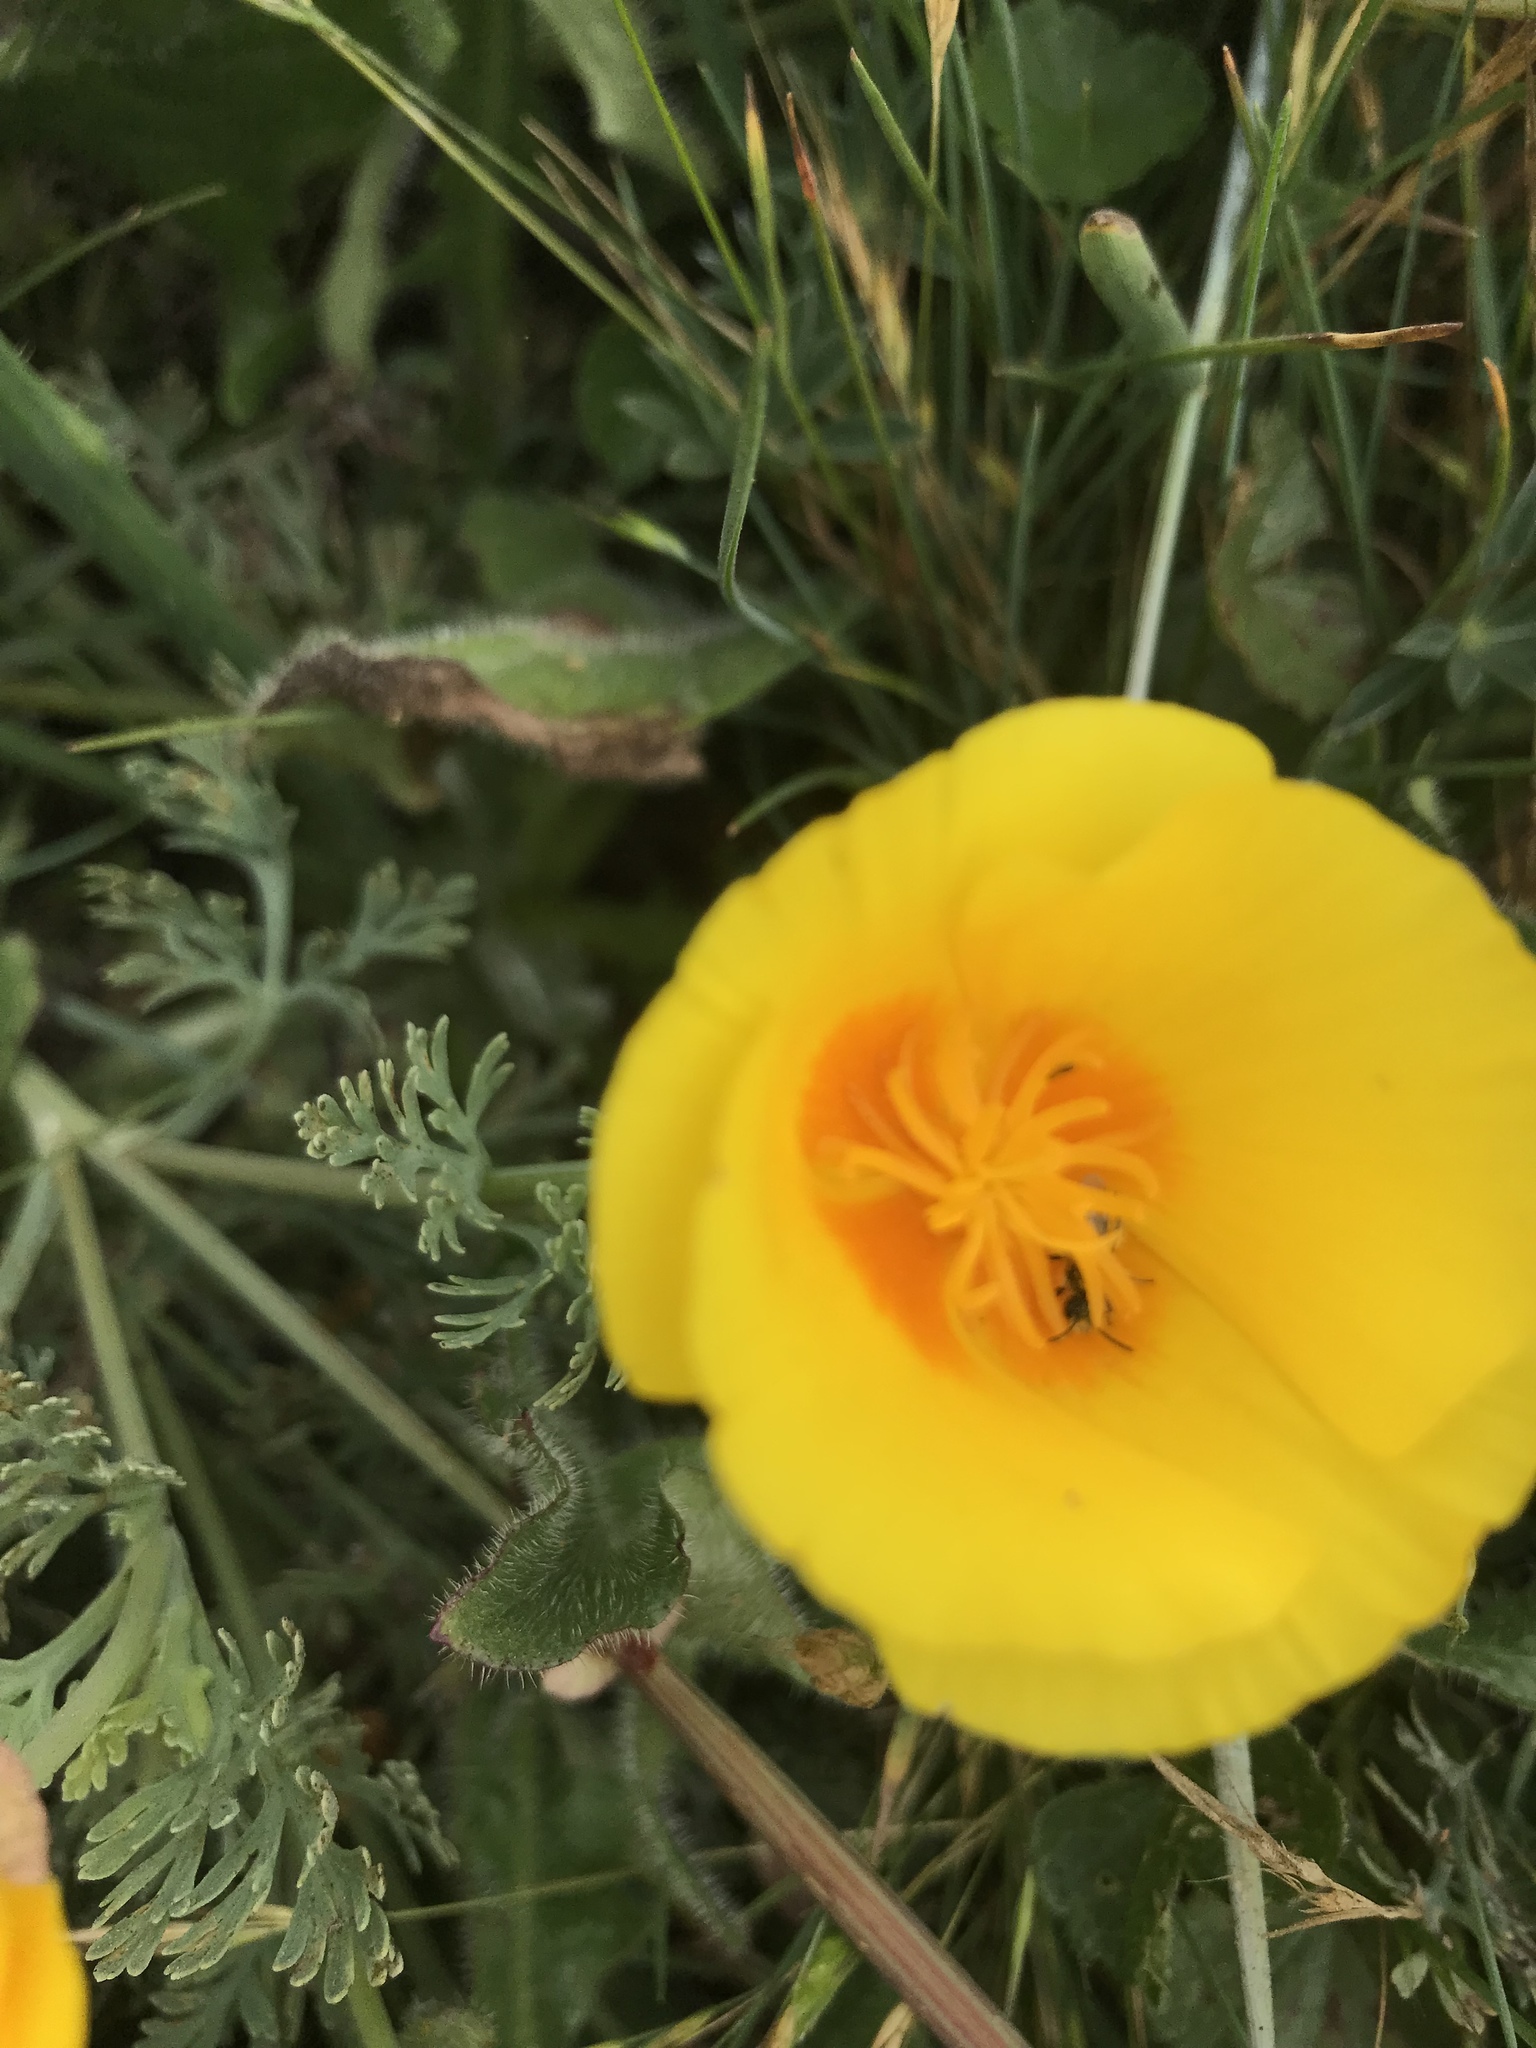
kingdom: Plantae
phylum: Tracheophyta
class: Magnoliopsida
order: Ranunculales
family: Papaveraceae
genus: Eschscholzia
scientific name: Eschscholzia californica
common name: California poppy
